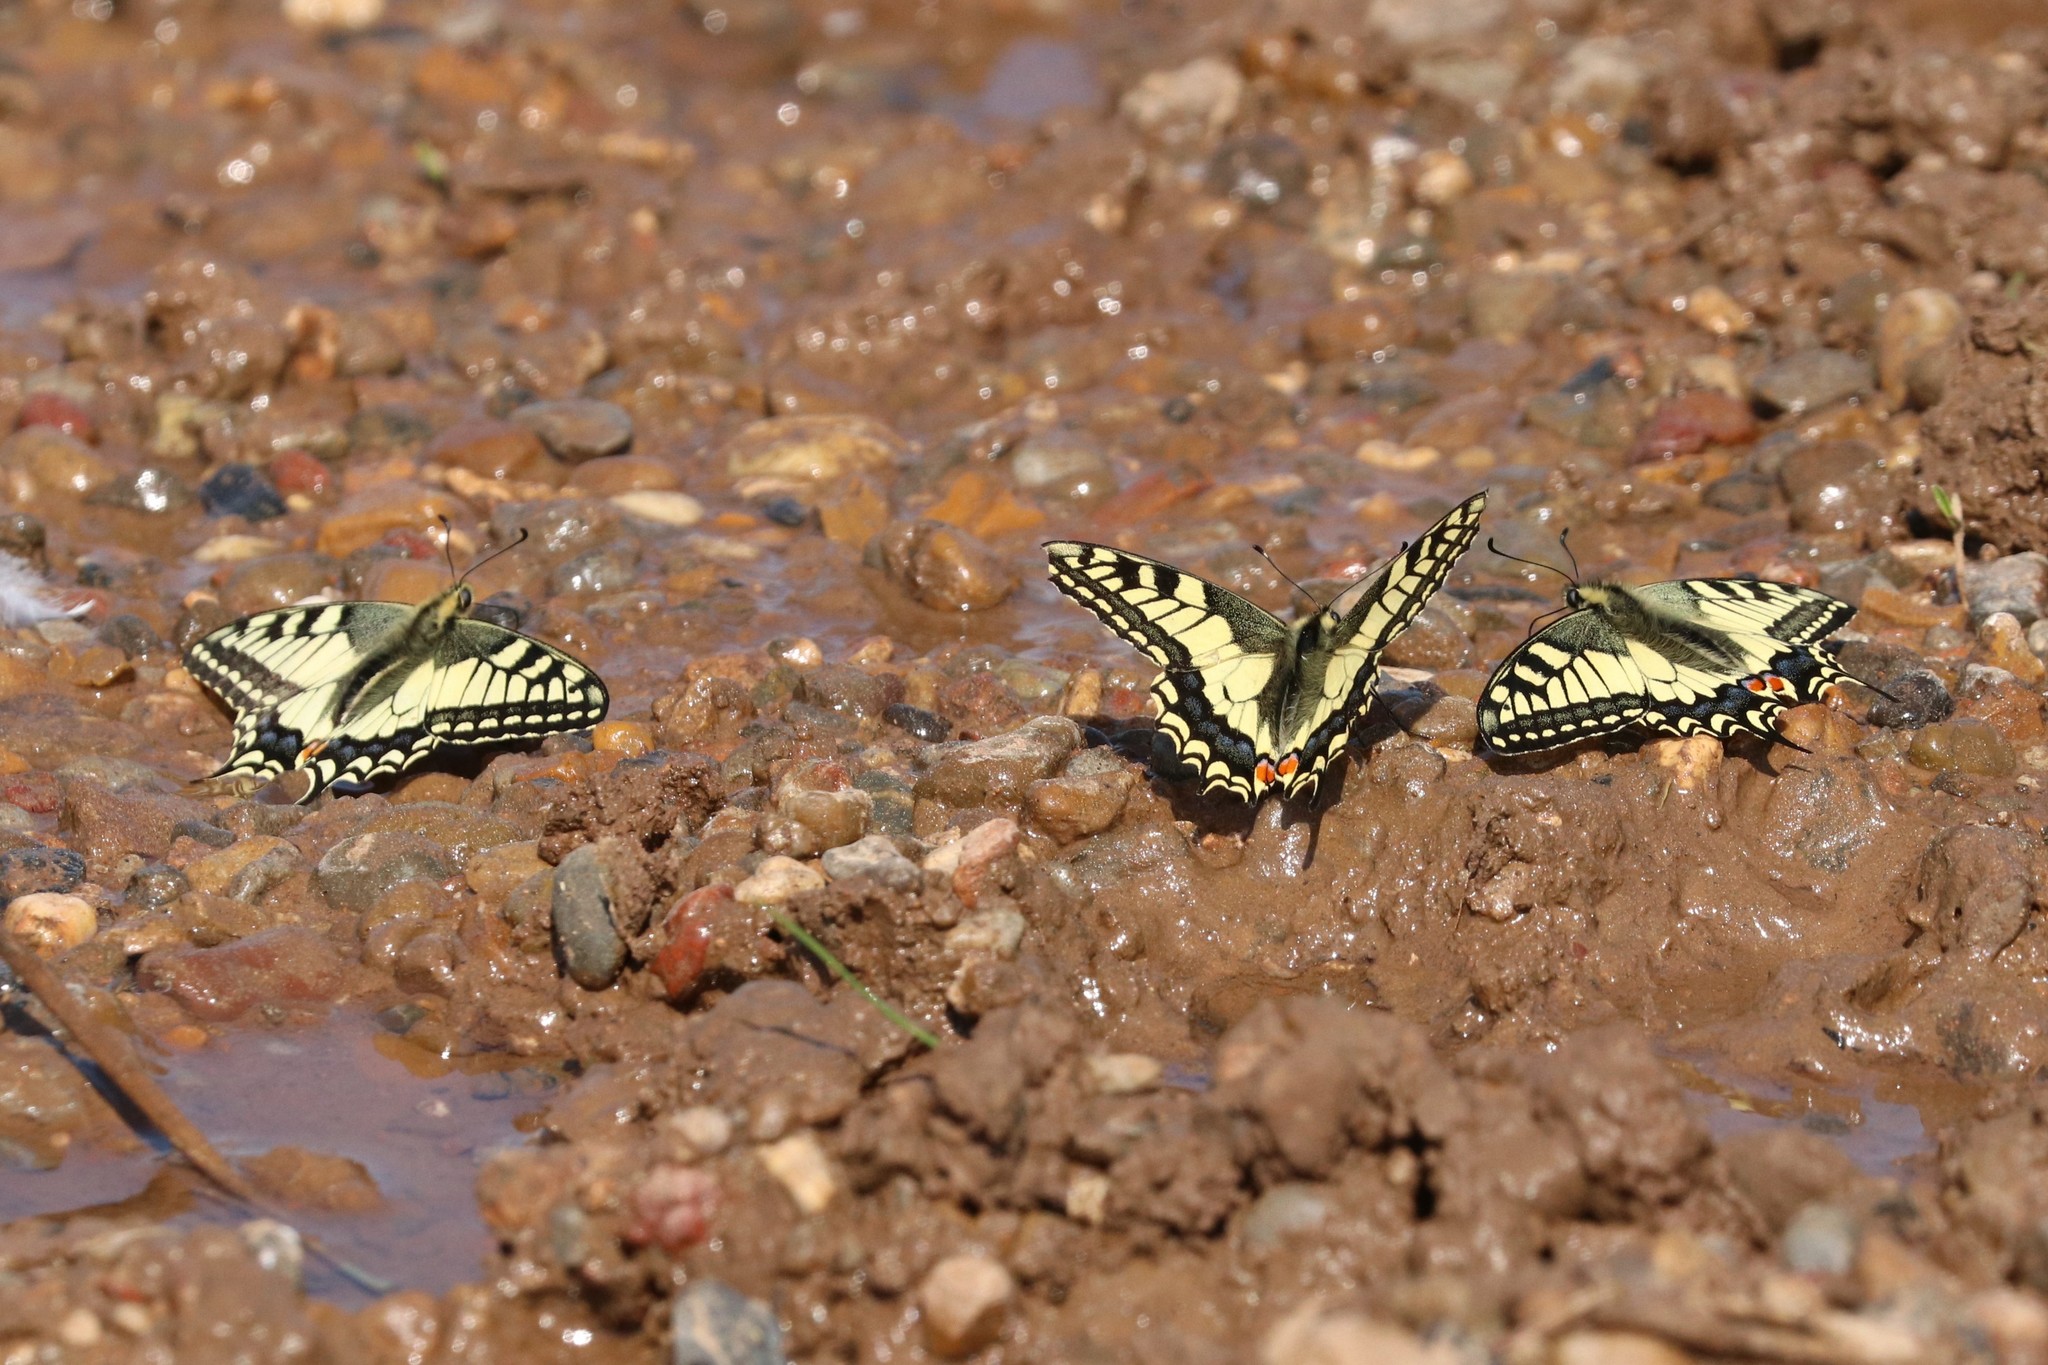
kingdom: Animalia
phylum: Arthropoda
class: Insecta
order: Lepidoptera
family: Papilionidae
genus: Papilio
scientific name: Papilio machaon
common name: Swallowtail
